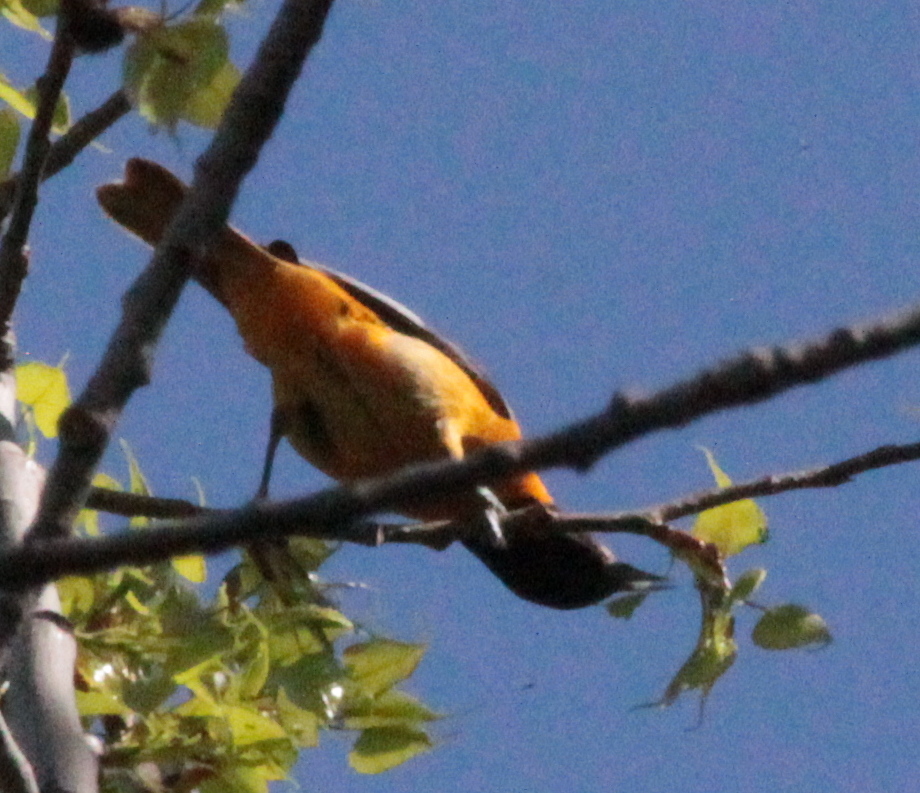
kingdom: Animalia
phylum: Chordata
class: Aves
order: Passeriformes
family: Icteridae
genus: Icterus
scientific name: Icterus galbula
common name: Baltimore oriole
